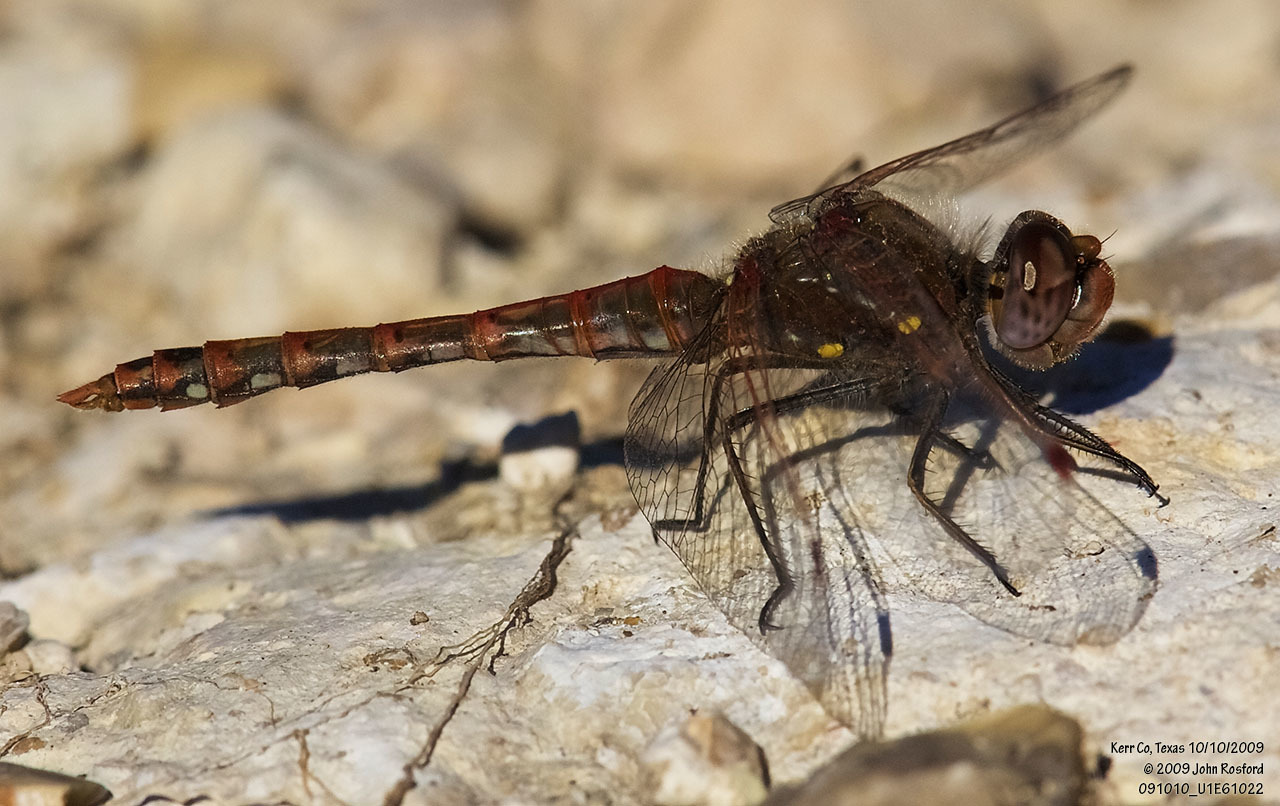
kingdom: Animalia
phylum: Arthropoda
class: Insecta
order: Odonata
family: Libellulidae
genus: Sympetrum
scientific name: Sympetrum corruptum
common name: Variegated meadowhawk
